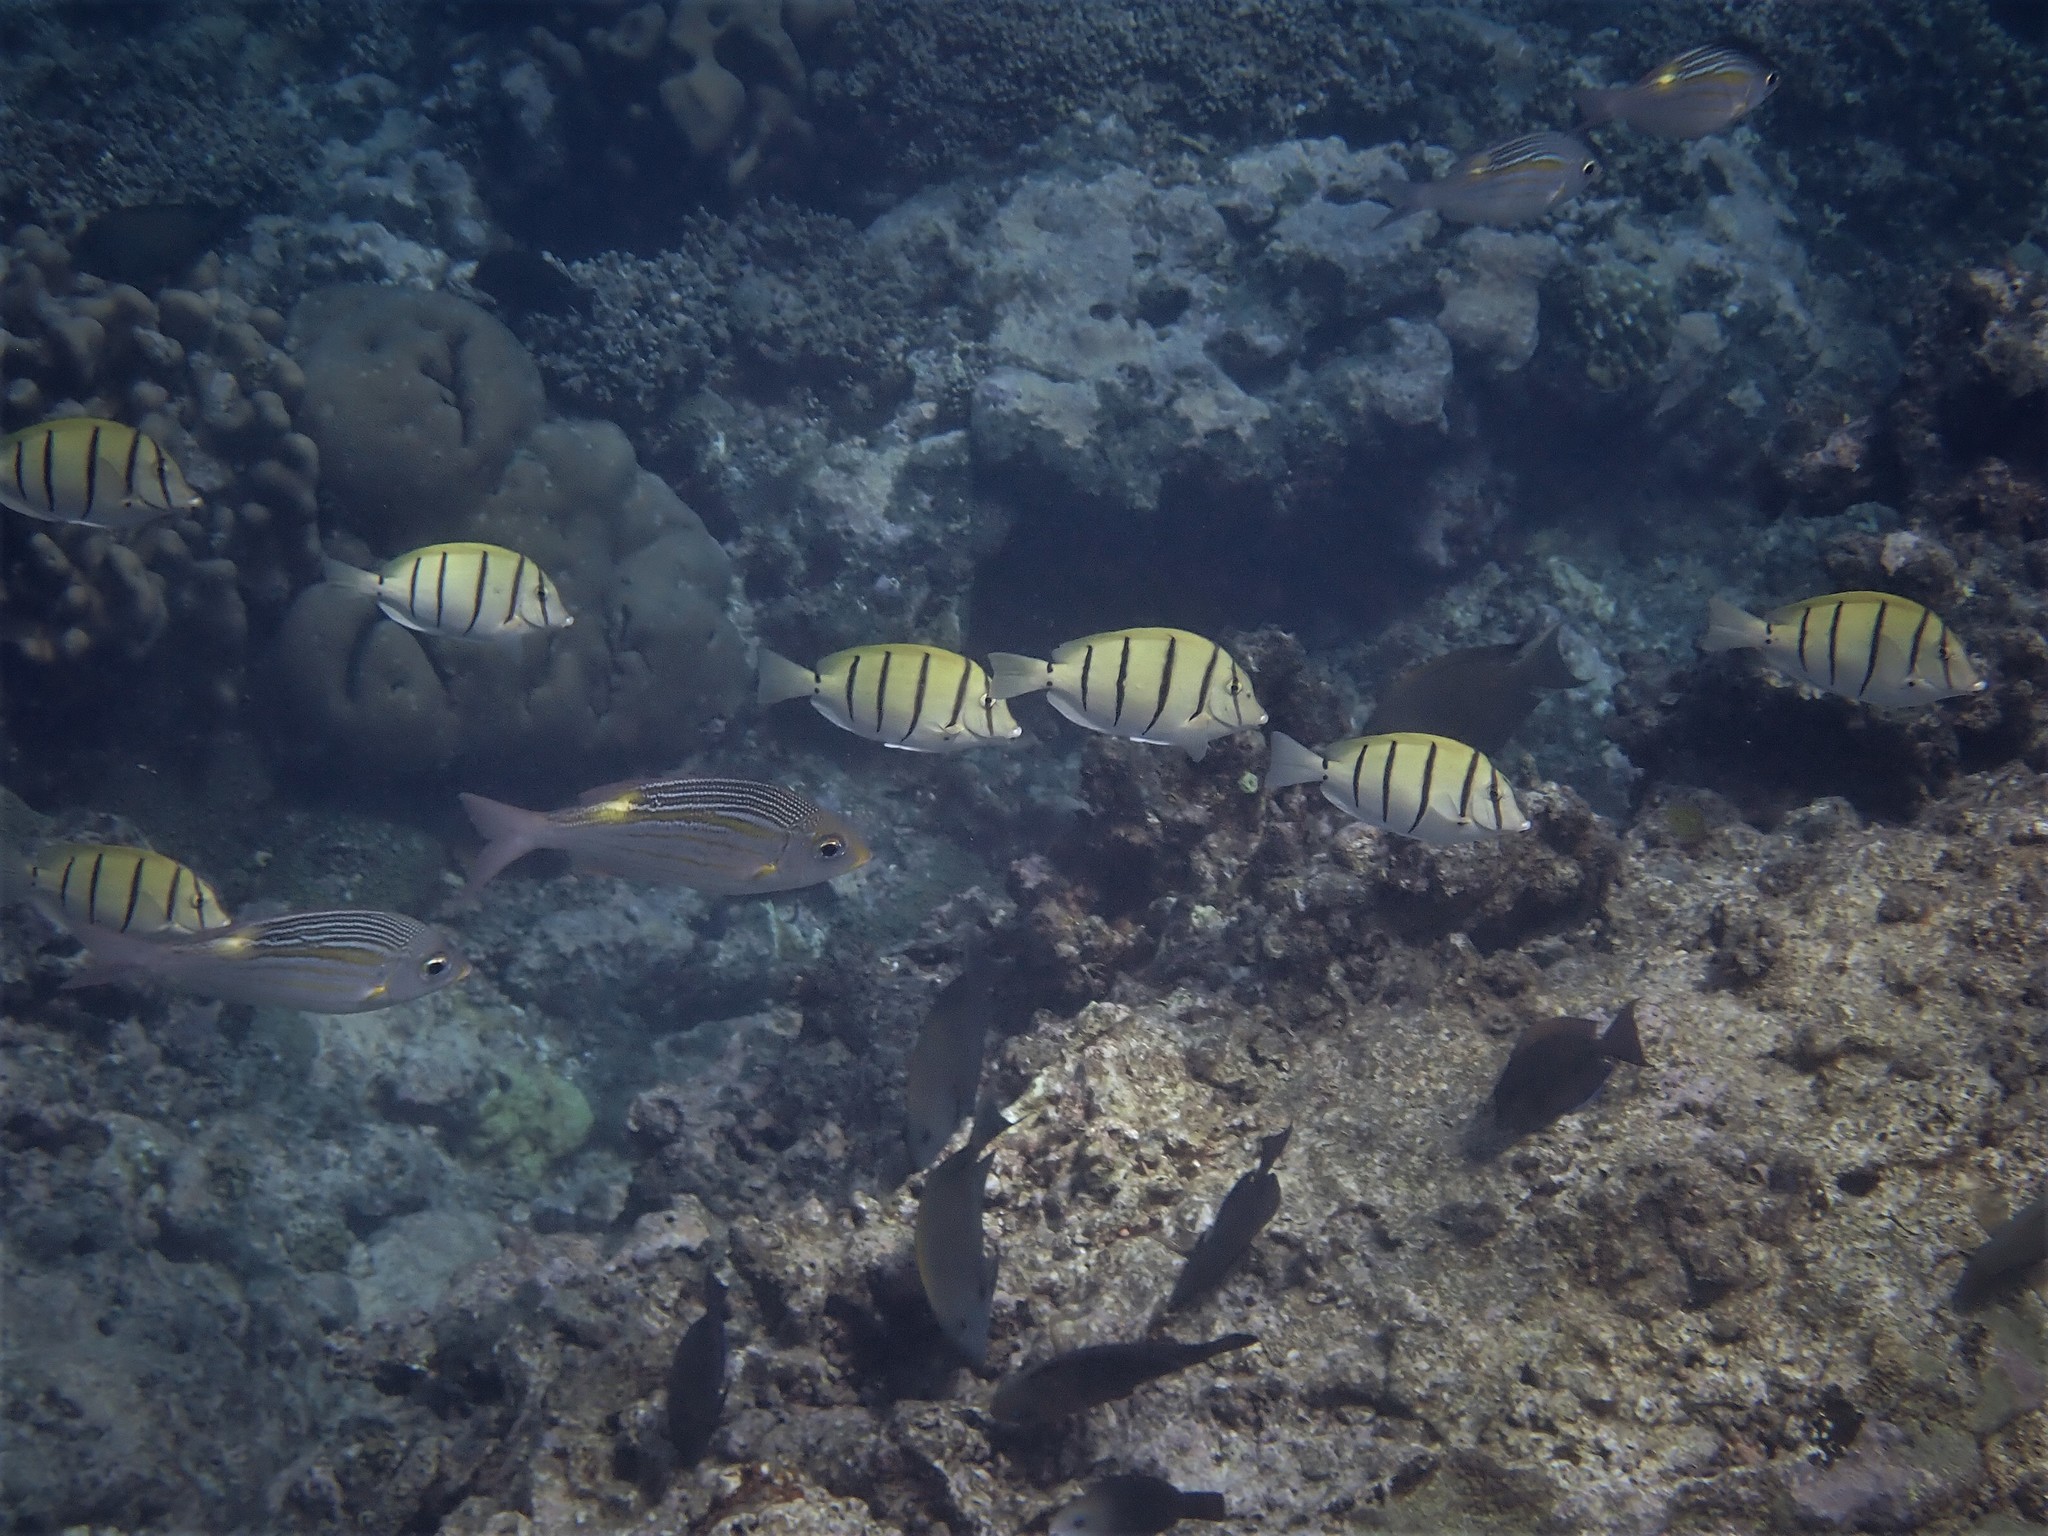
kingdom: Animalia
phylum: Chordata
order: Perciformes
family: Acanthuridae
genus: Acanthurus
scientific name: Acanthurus triostegus
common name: Convict surgeonfish
